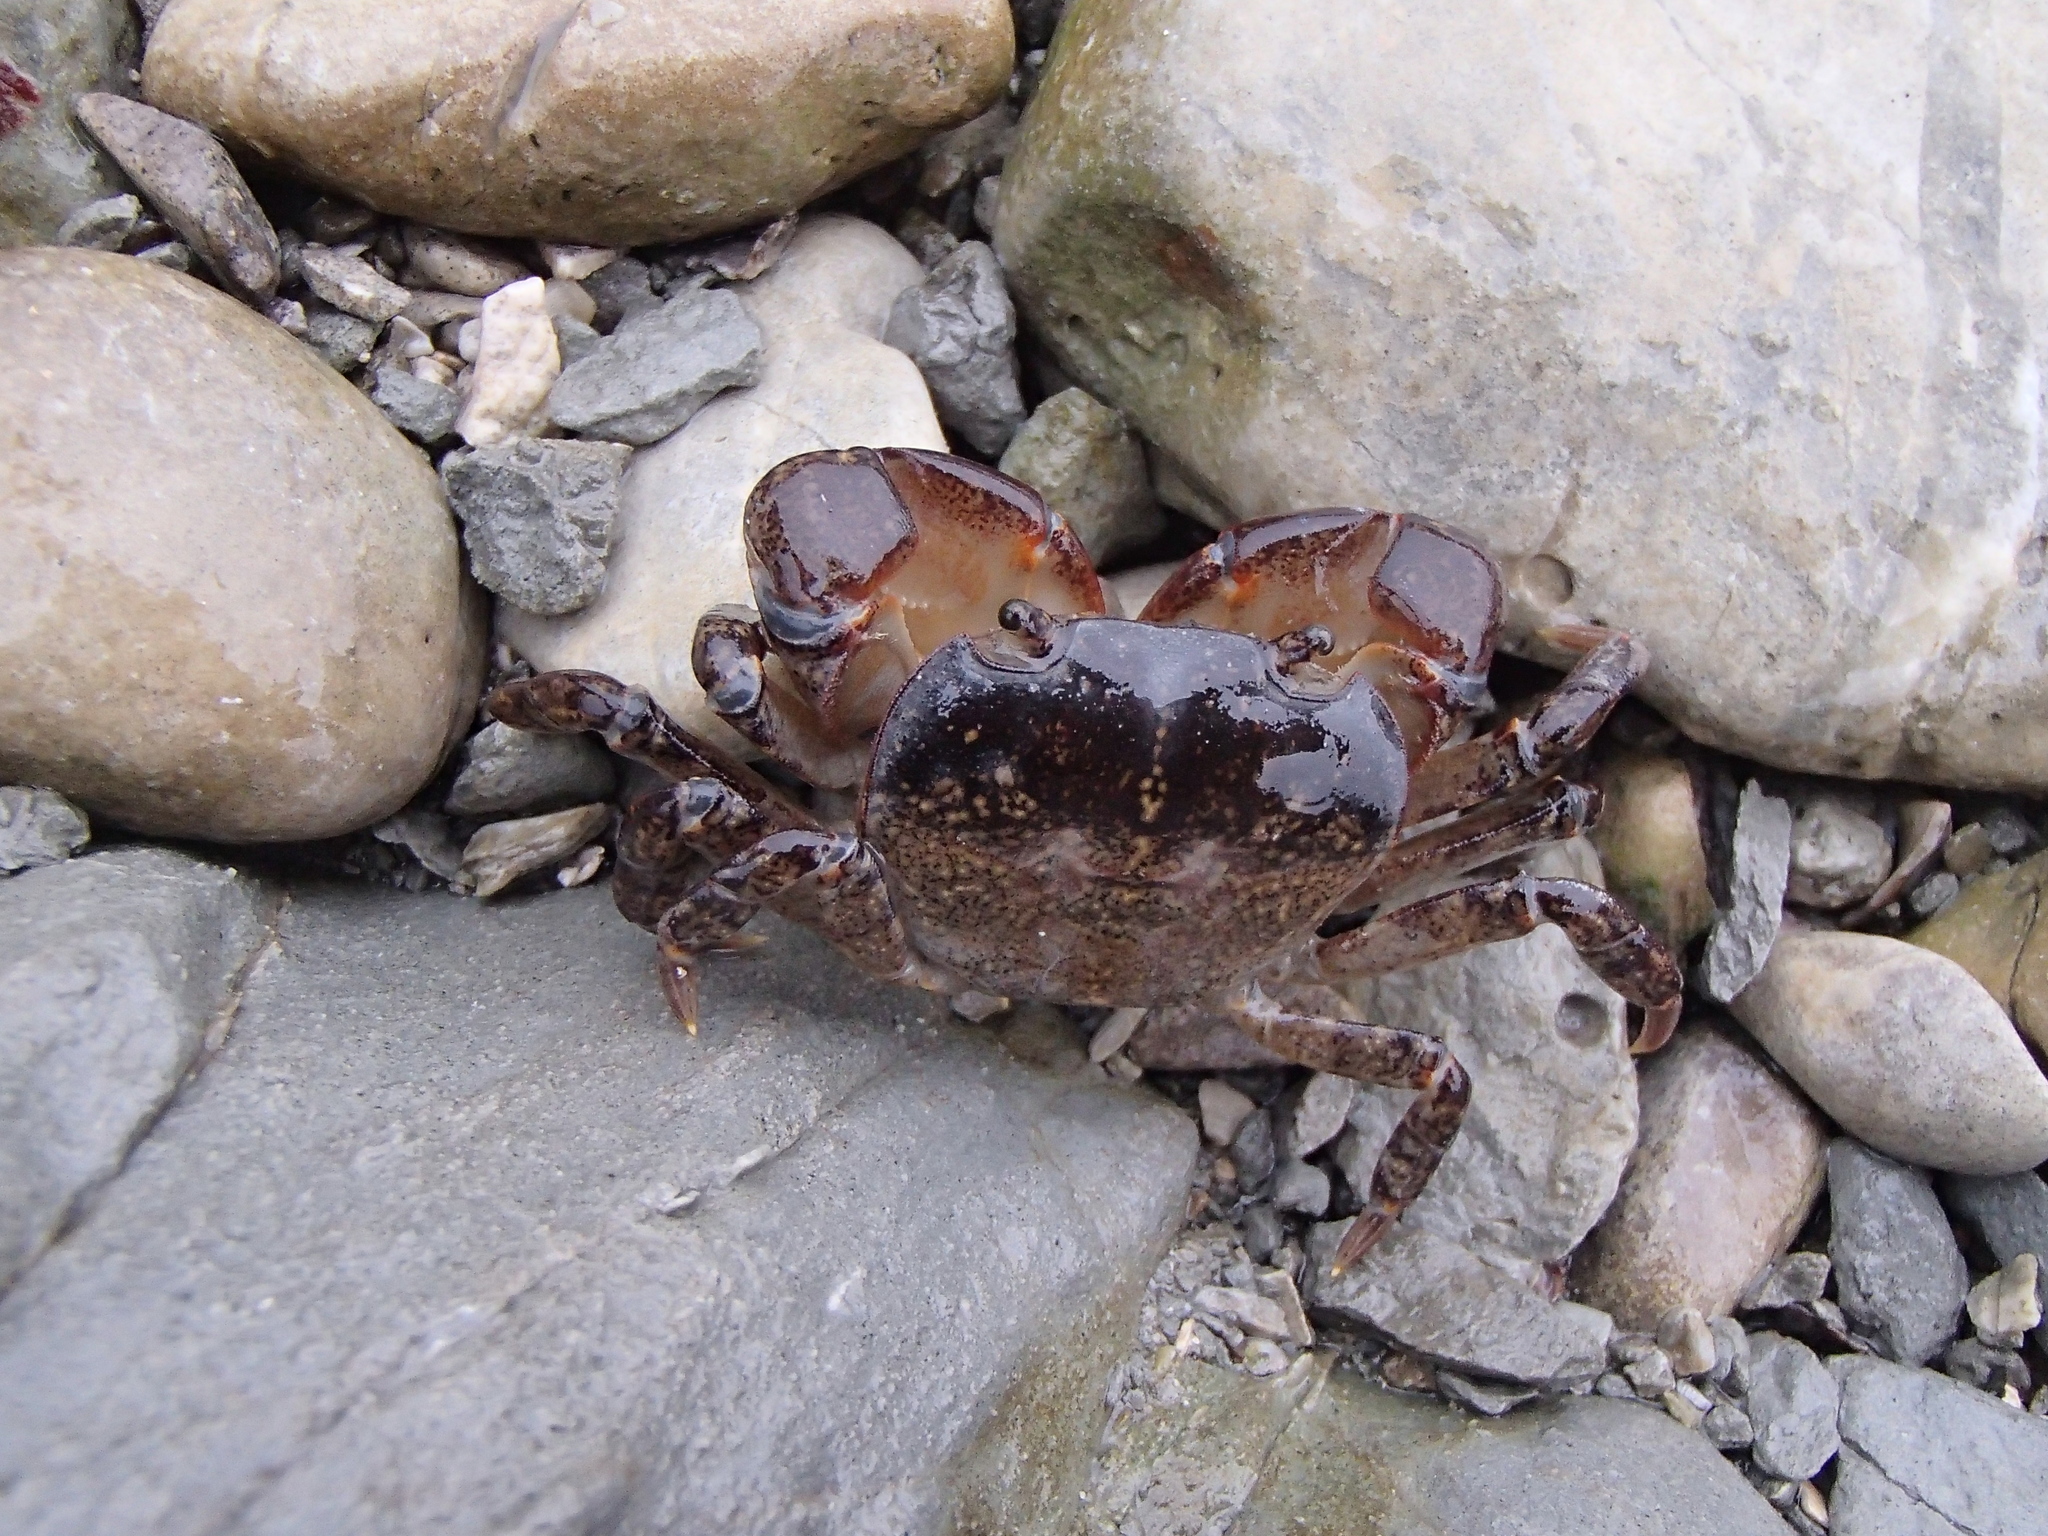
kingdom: Animalia
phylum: Arthropoda
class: Malacostraca
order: Decapoda
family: Varunidae
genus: Cyclograpsus
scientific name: Cyclograpsus lavauxi
